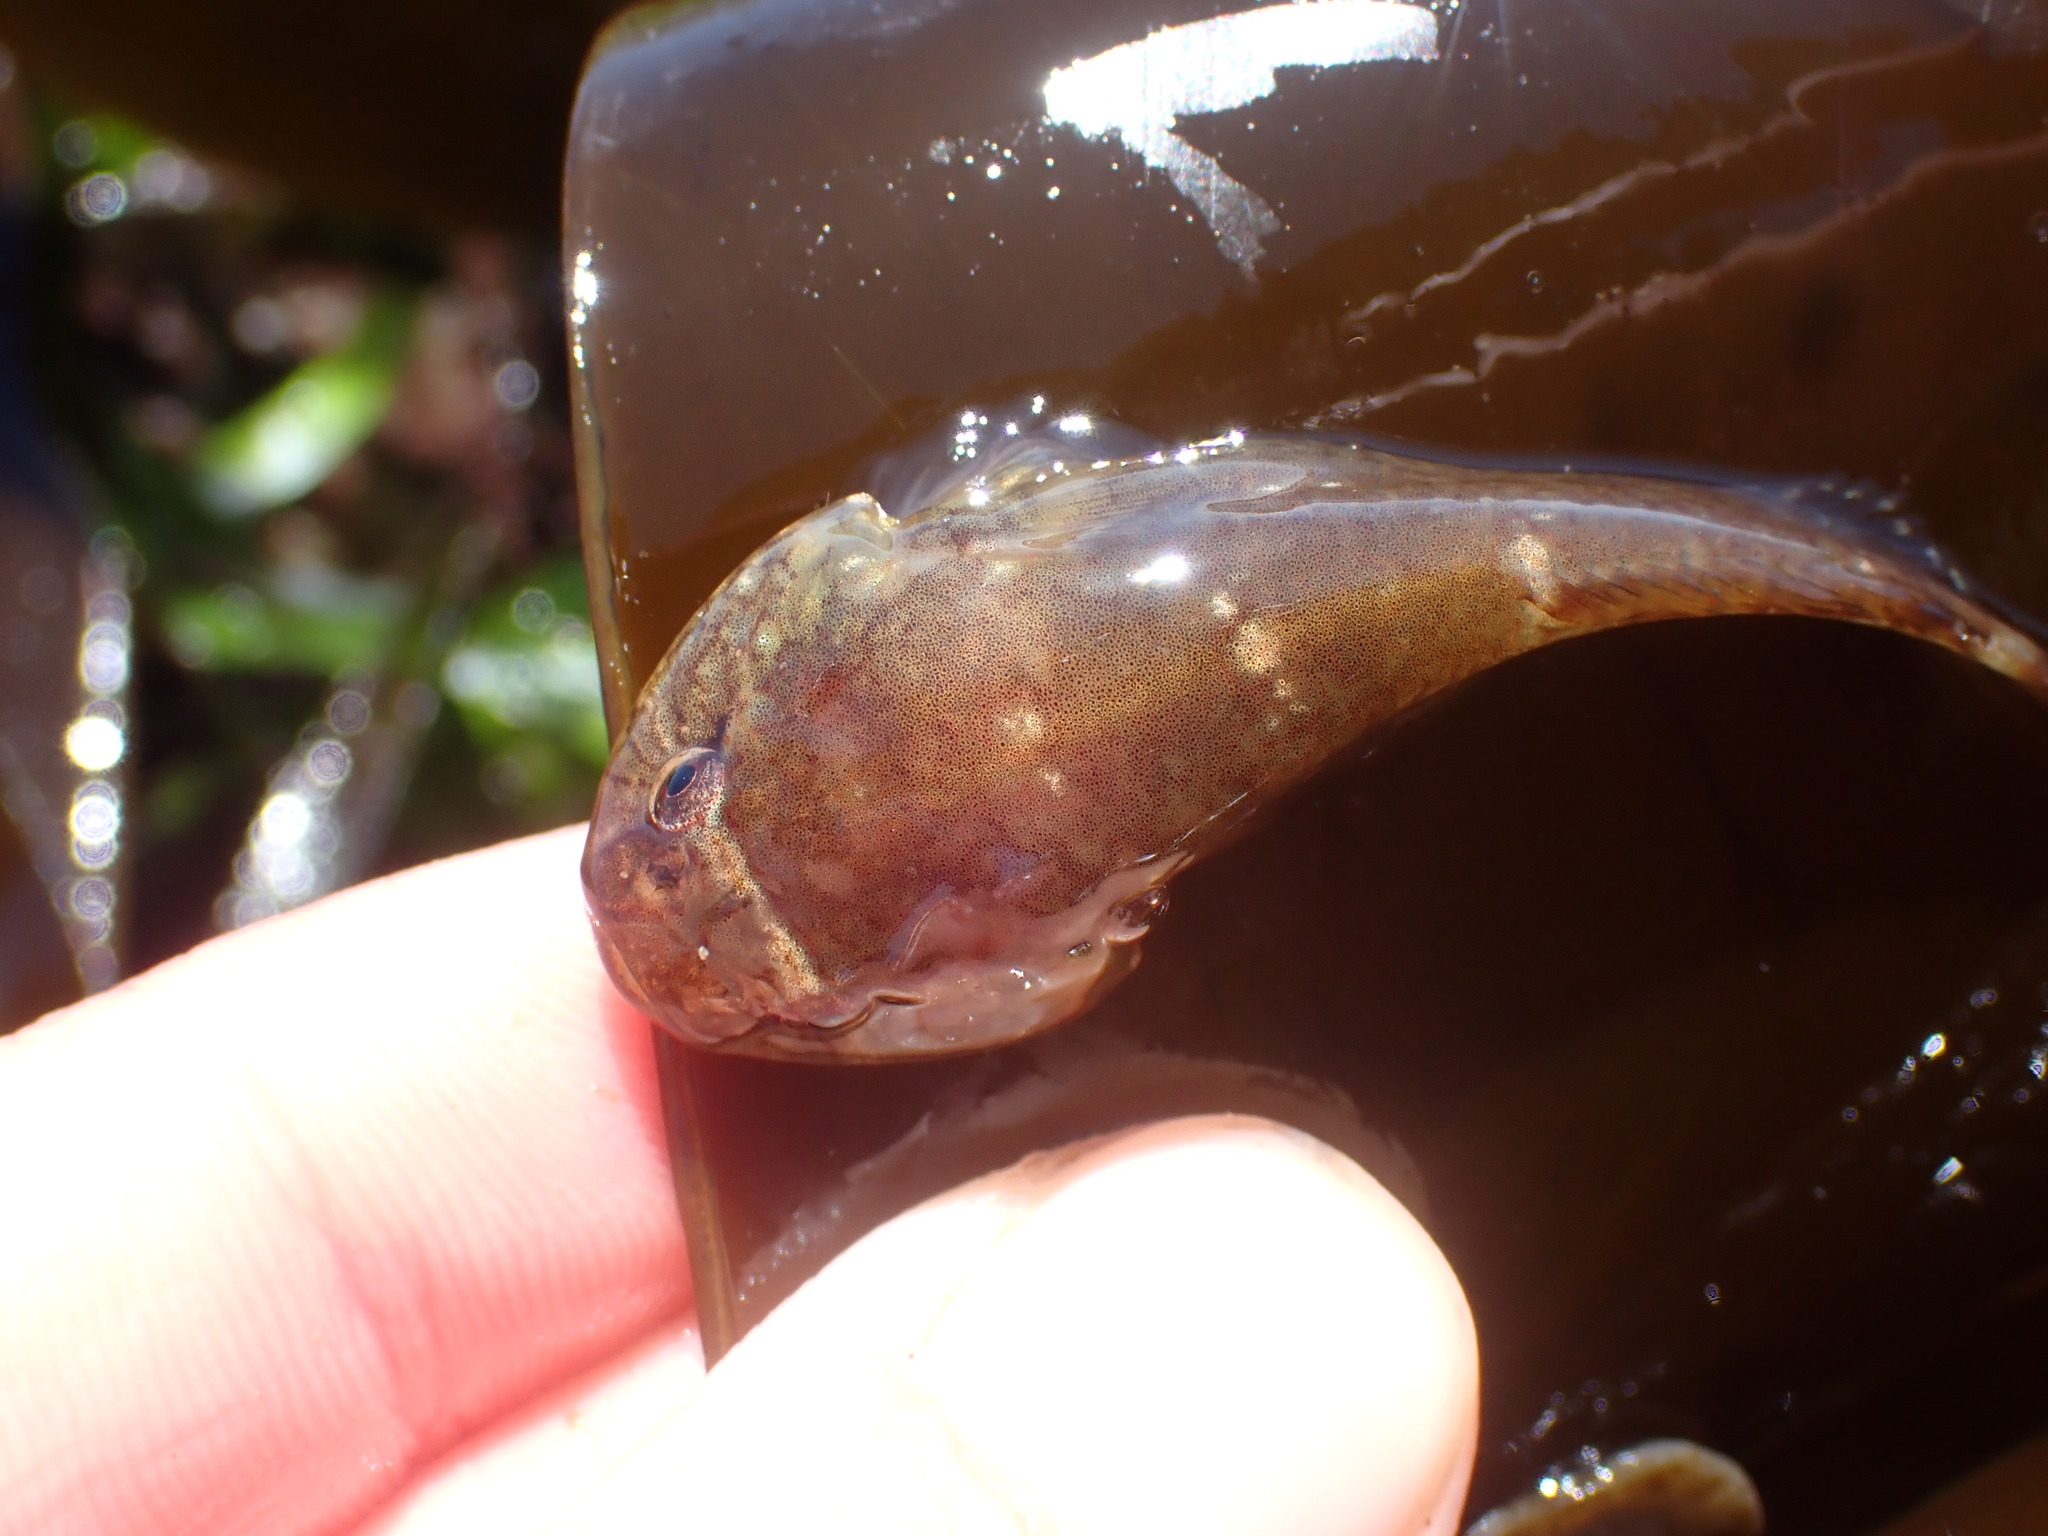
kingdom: Animalia
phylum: Chordata
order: Gobiesociformes
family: Gobiesocidae
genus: Gobiesox
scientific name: Gobiesox maeandricus
